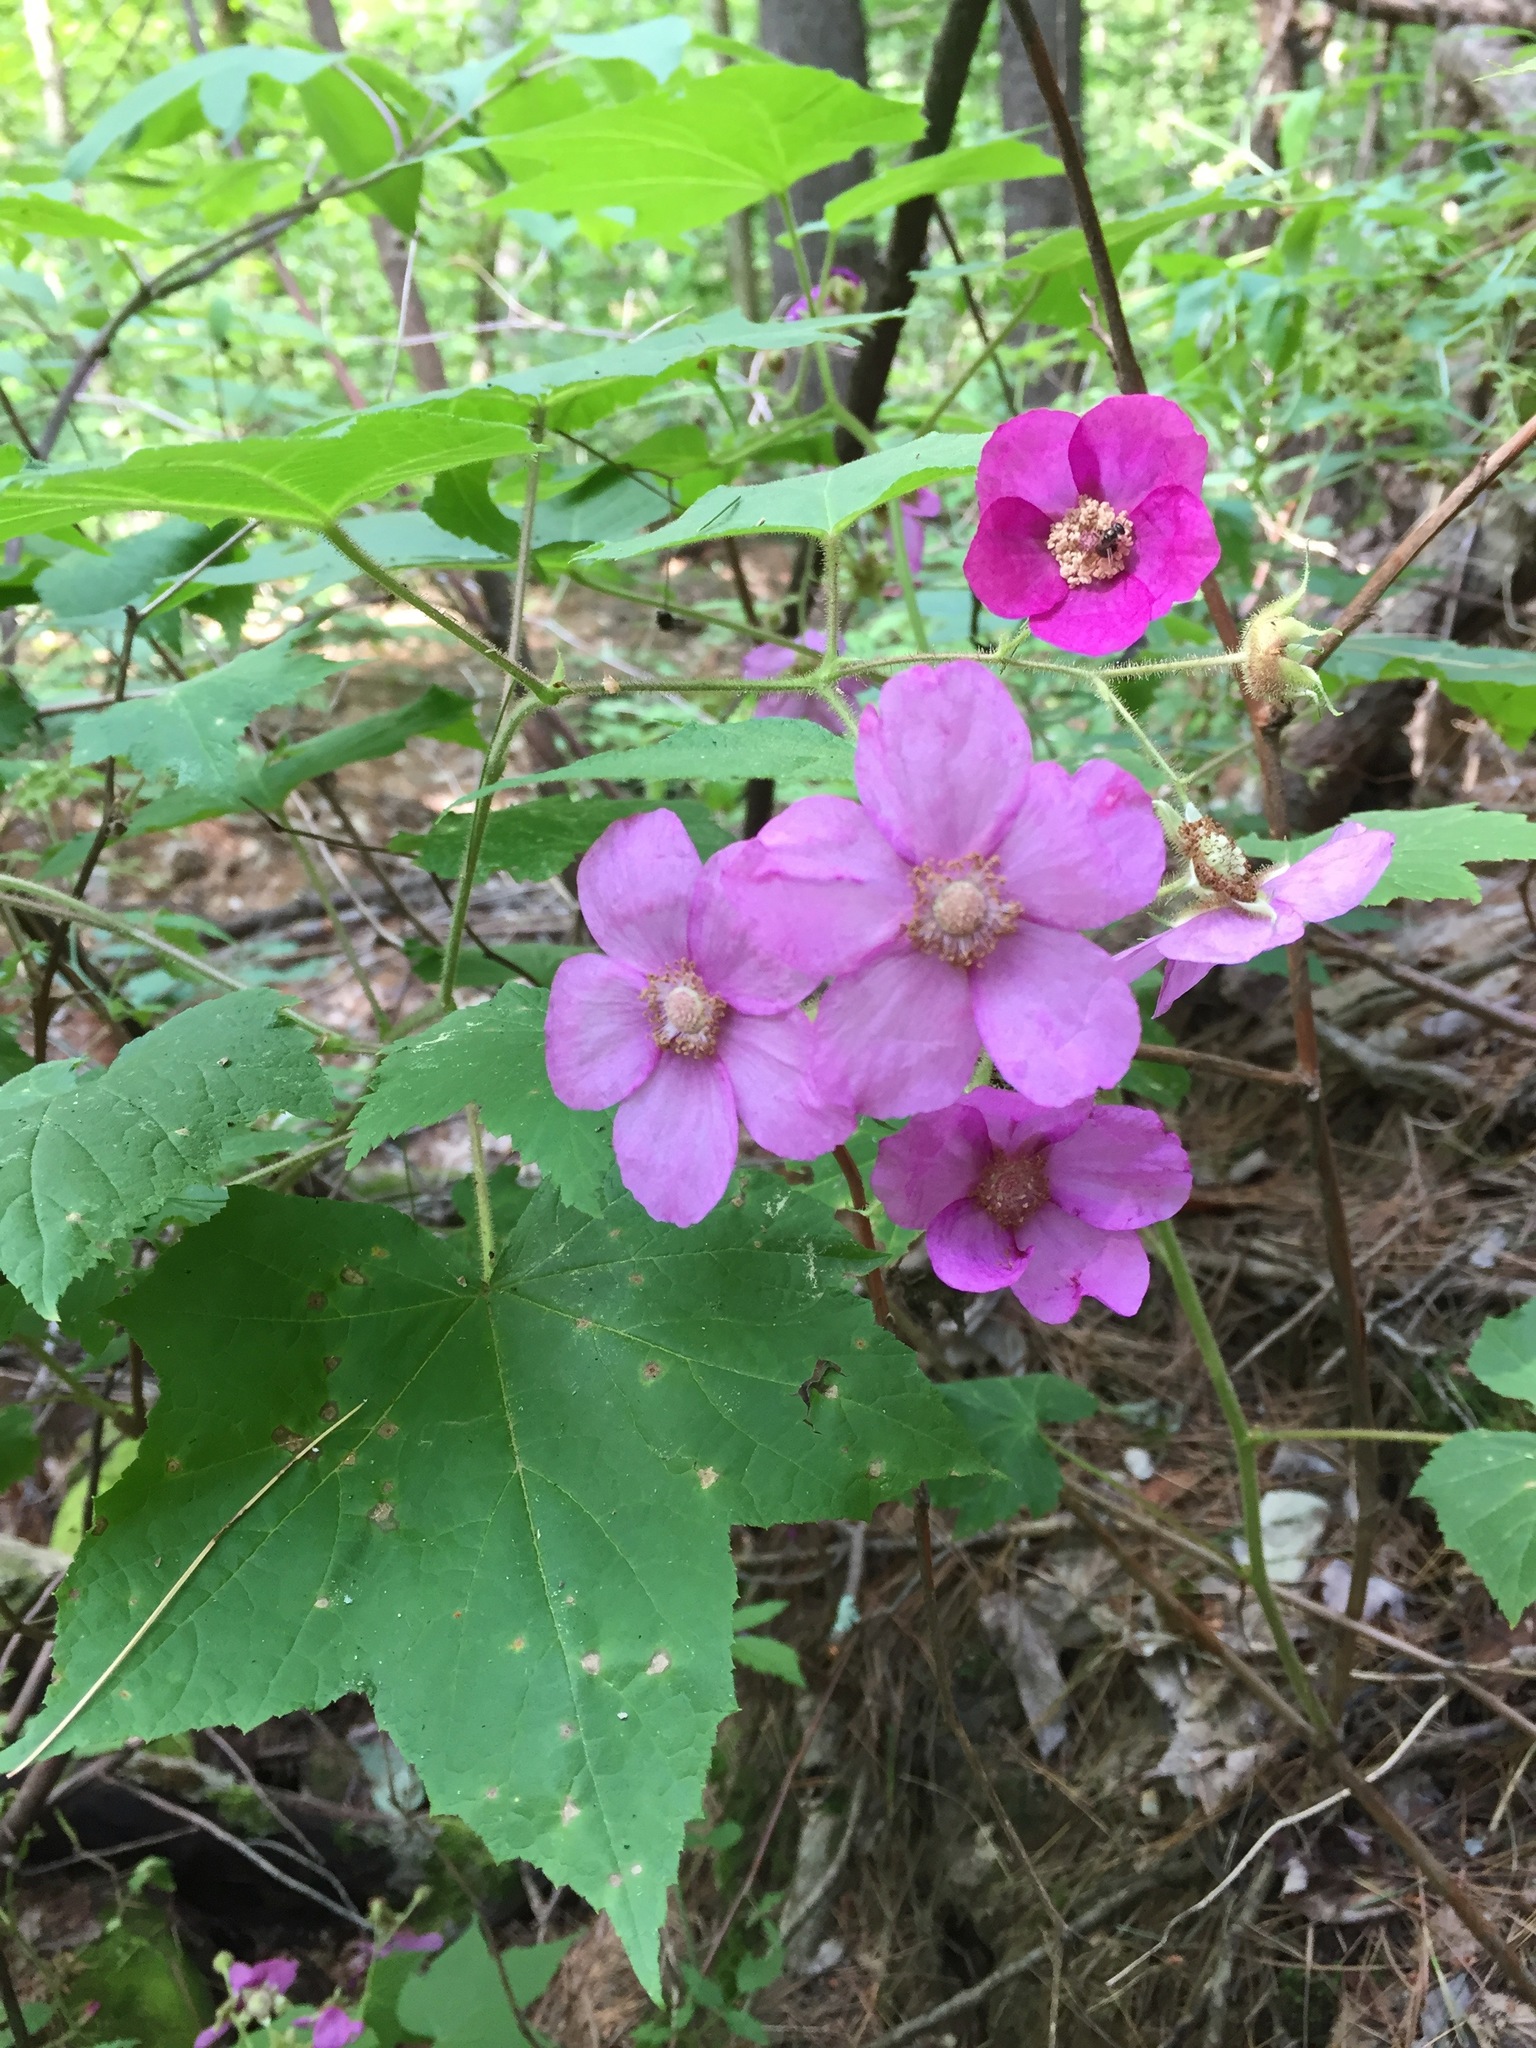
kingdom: Plantae
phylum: Tracheophyta
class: Magnoliopsida
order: Rosales
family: Rosaceae
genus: Rubus
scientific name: Rubus odoratus
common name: Purple-flowered raspberry
